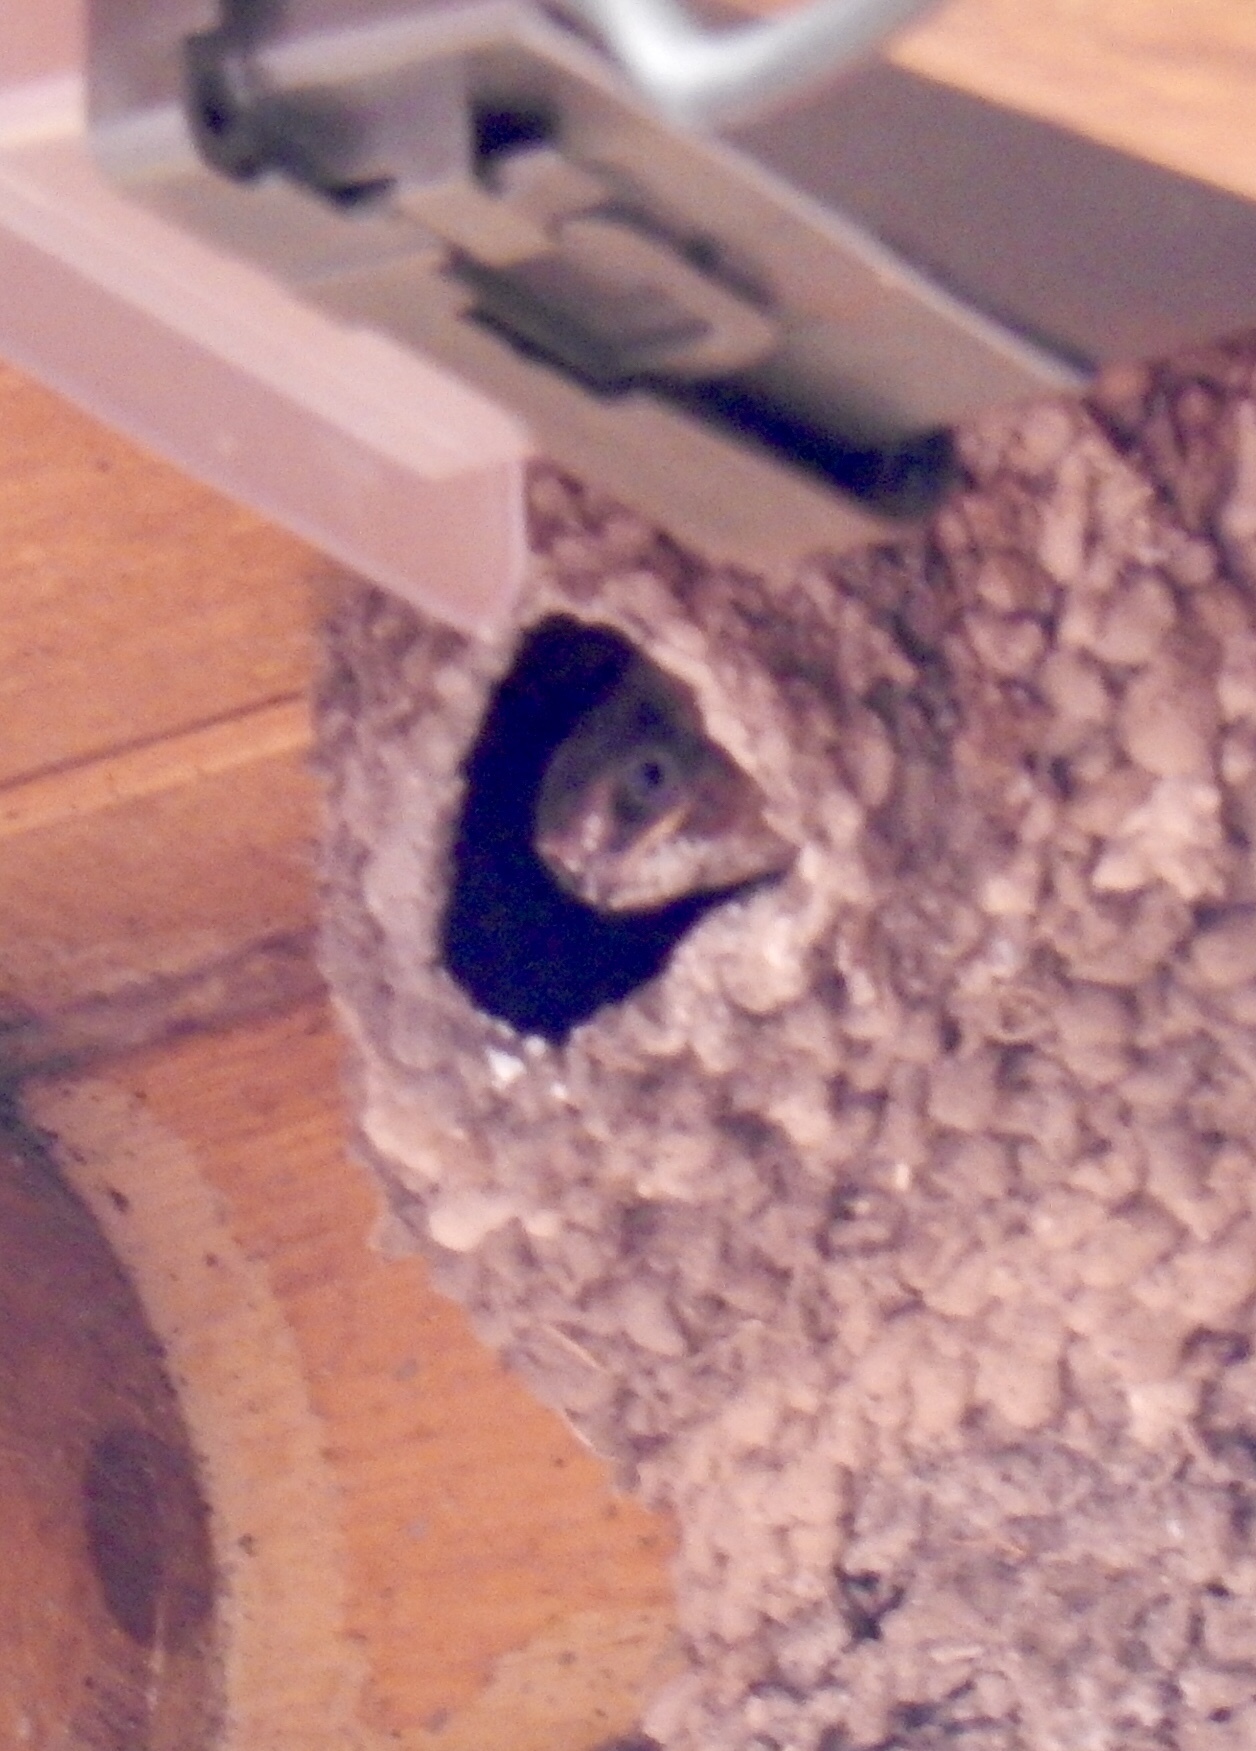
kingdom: Animalia
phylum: Chordata
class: Aves
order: Passeriformes
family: Hirundinidae
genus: Petrochelidon
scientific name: Petrochelidon pyrrhonota
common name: American cliff swallow
